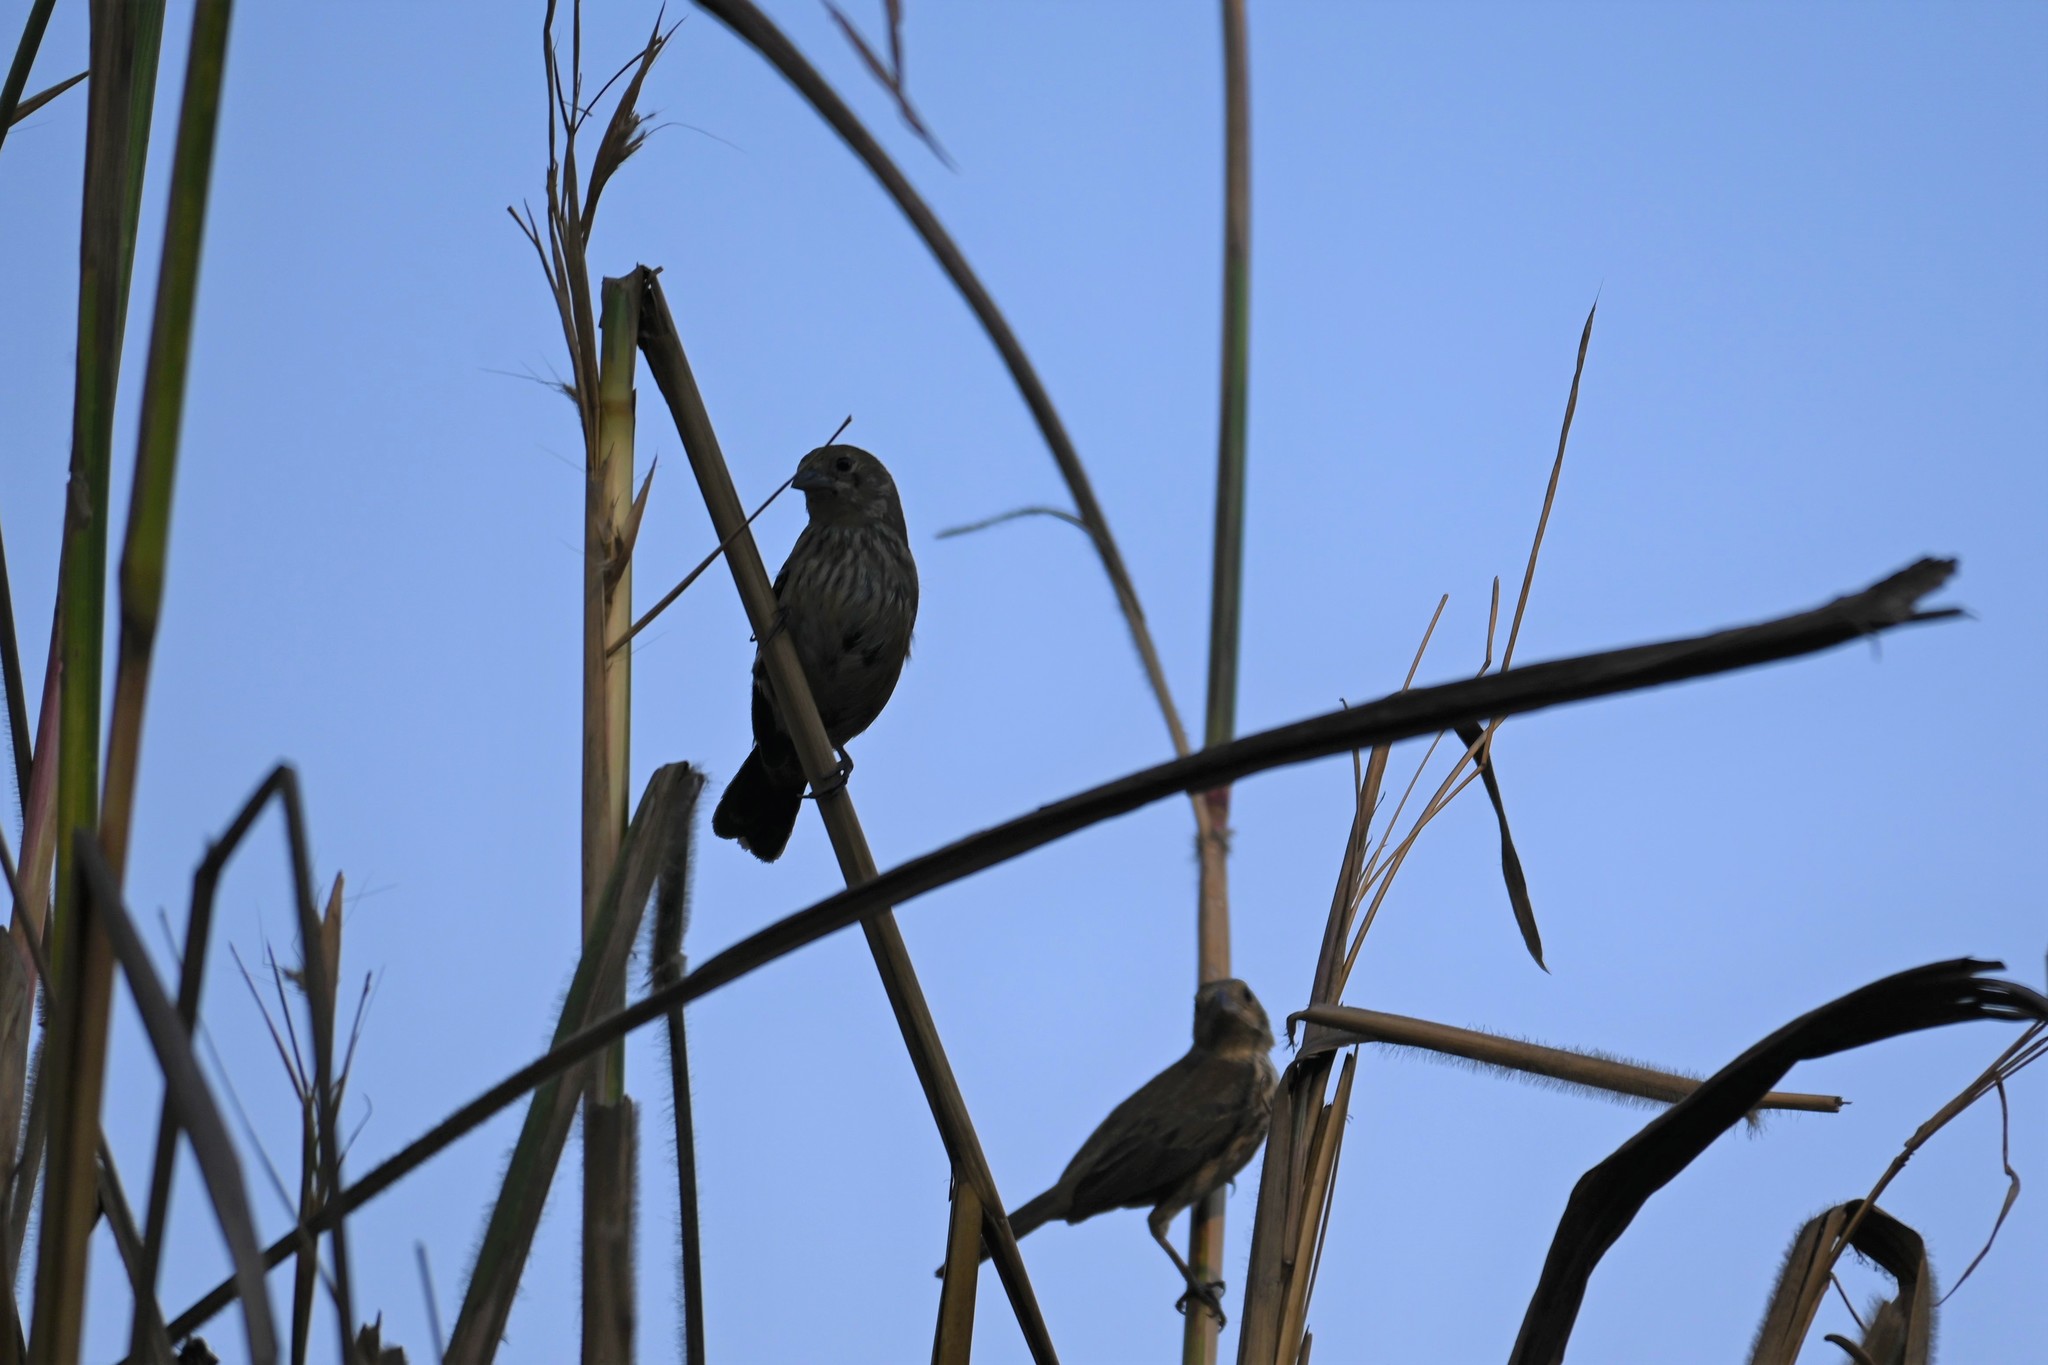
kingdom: Animalia
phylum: Chordata
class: Aves
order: Passeriformes
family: Thraupidae
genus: Volatinia
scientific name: Volatinia jacarina
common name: Blue-black grassquit
